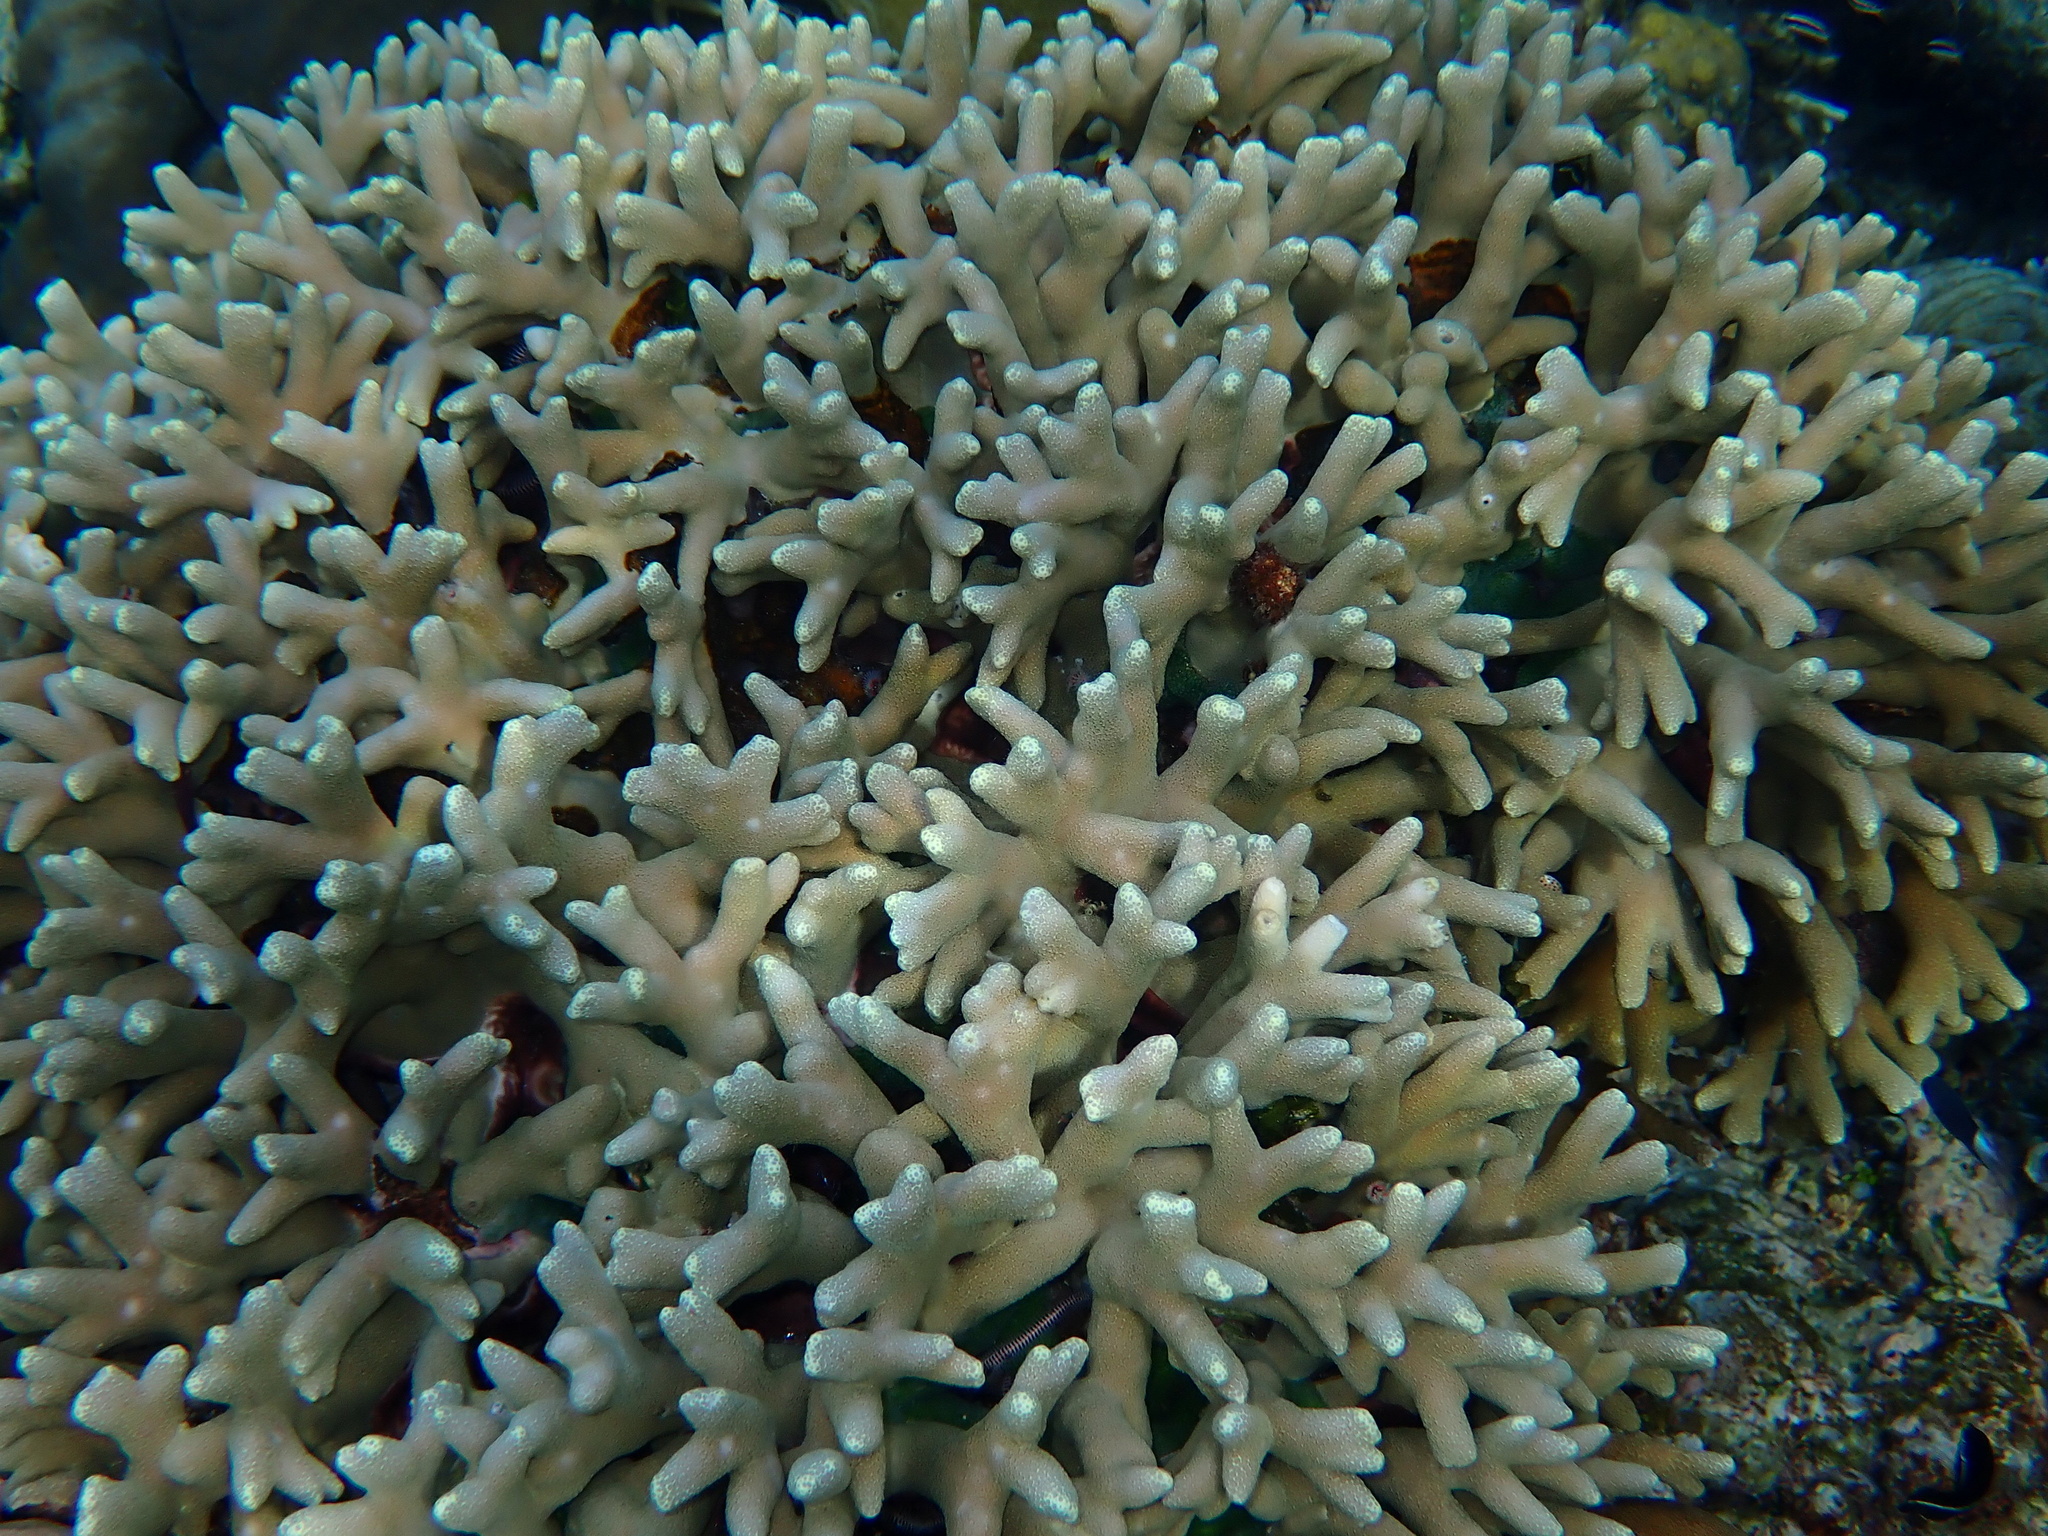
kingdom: Animalia
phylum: Cnidaria
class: Anthozoa
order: Scleractinia
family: Poritidae
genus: Porites
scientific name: Porites cylindrica
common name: Hump coral
